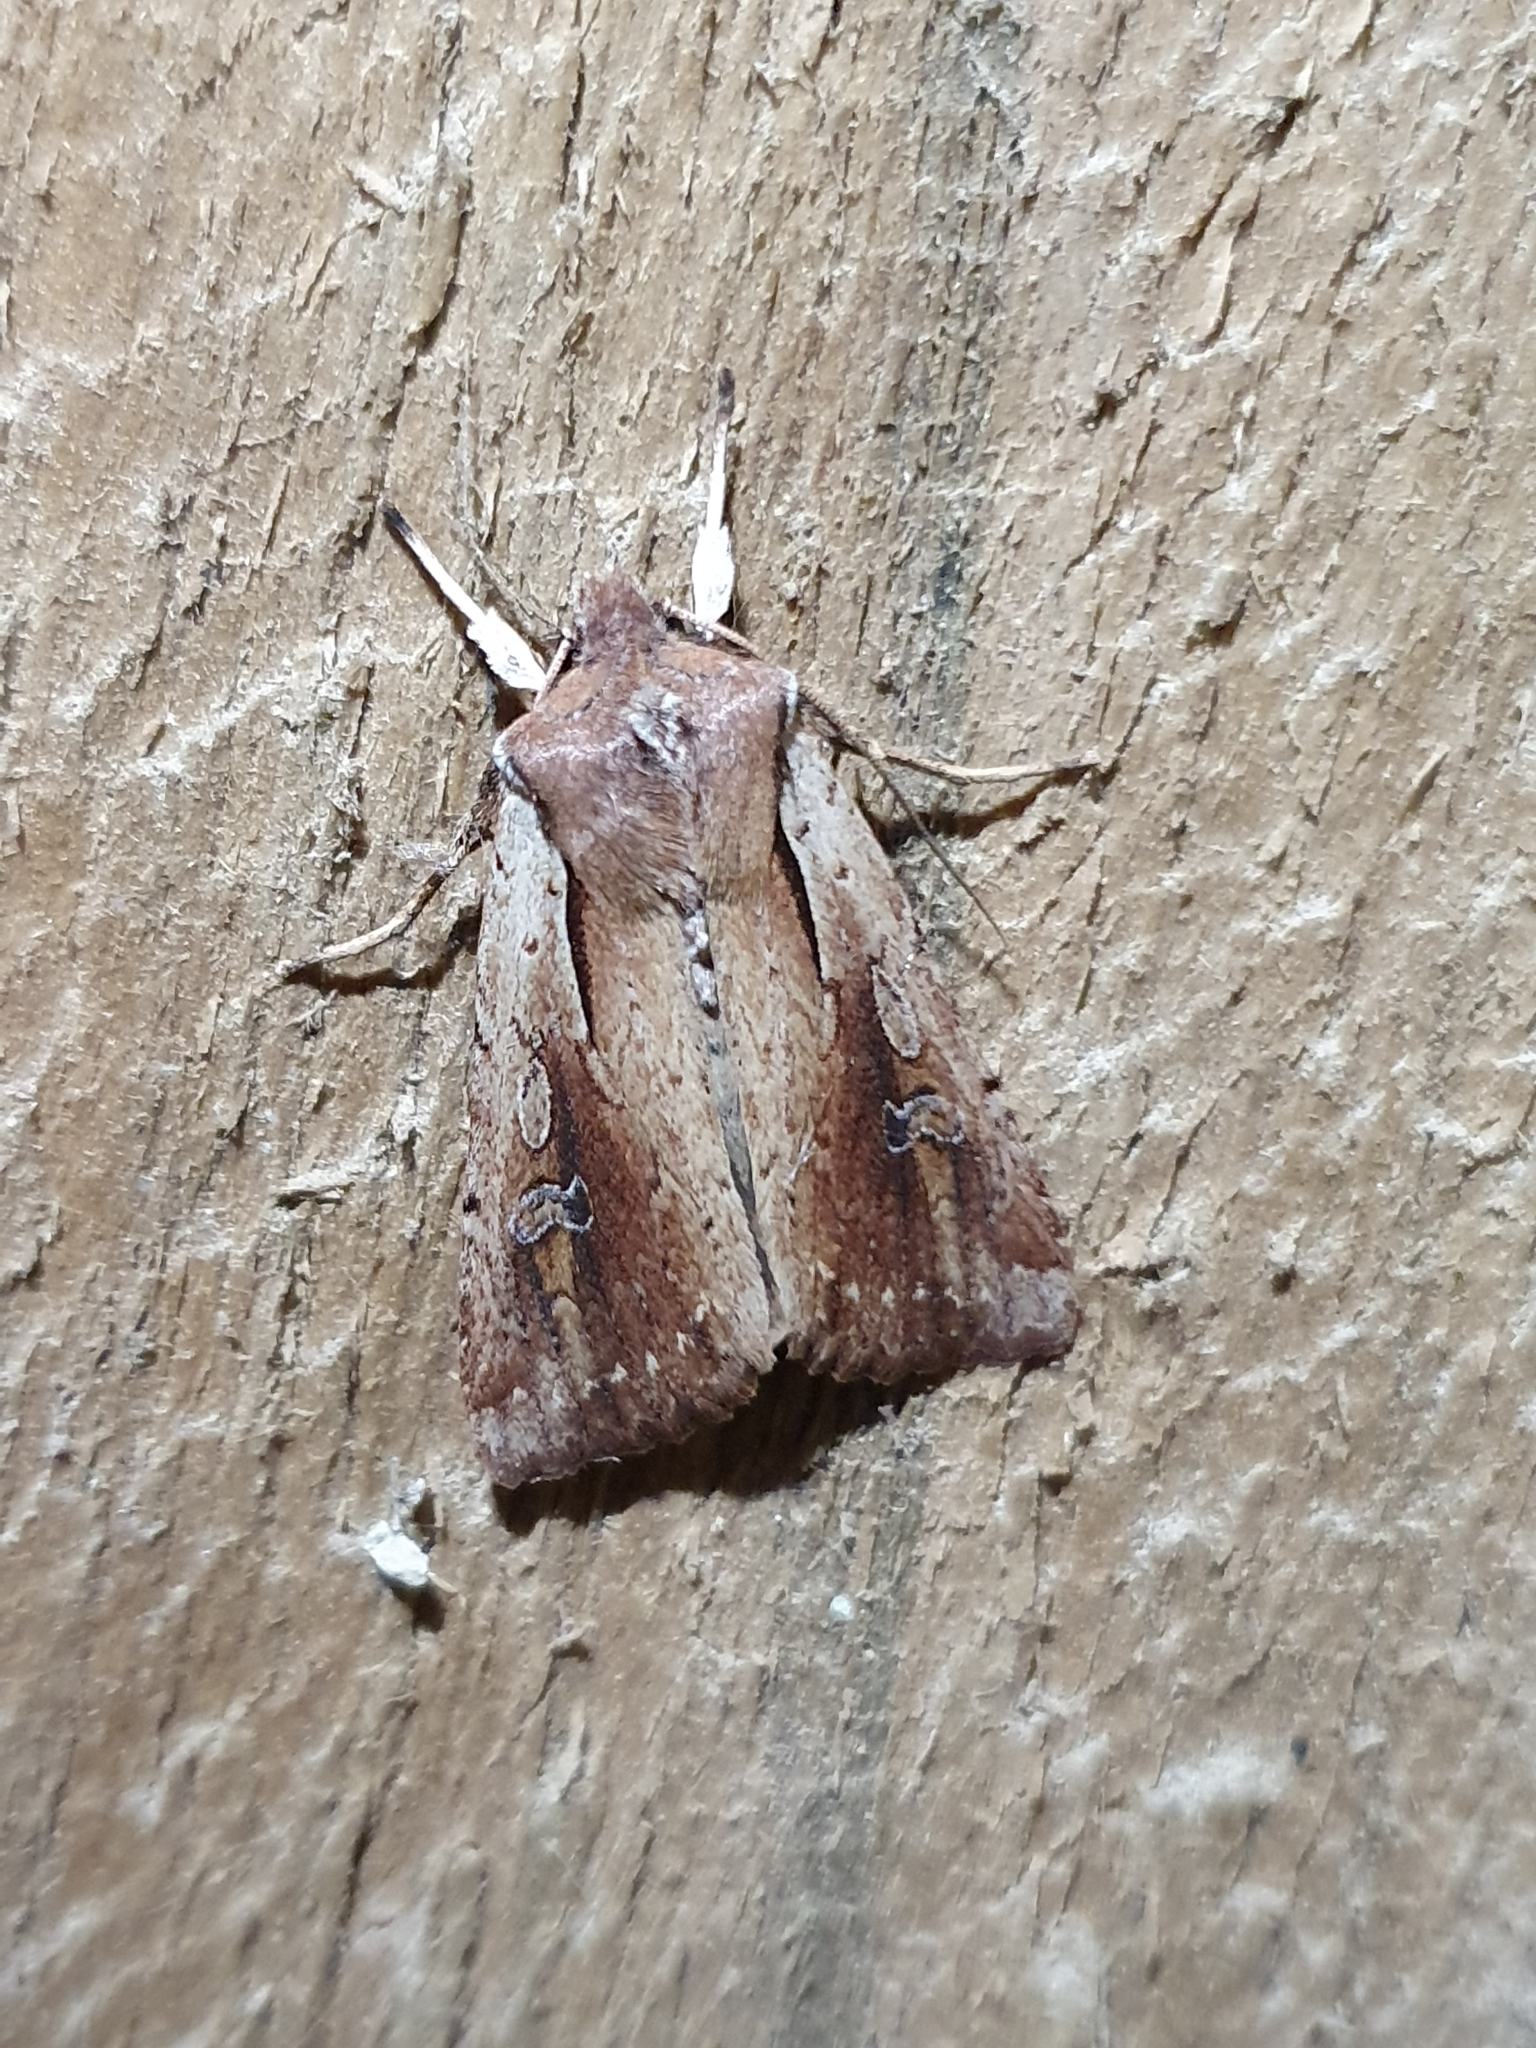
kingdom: Animalia
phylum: Arthropoda
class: Insecta
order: Lepidoptera
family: Noctuidae
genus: Ichneutica
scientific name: Ichneutica atristriga
